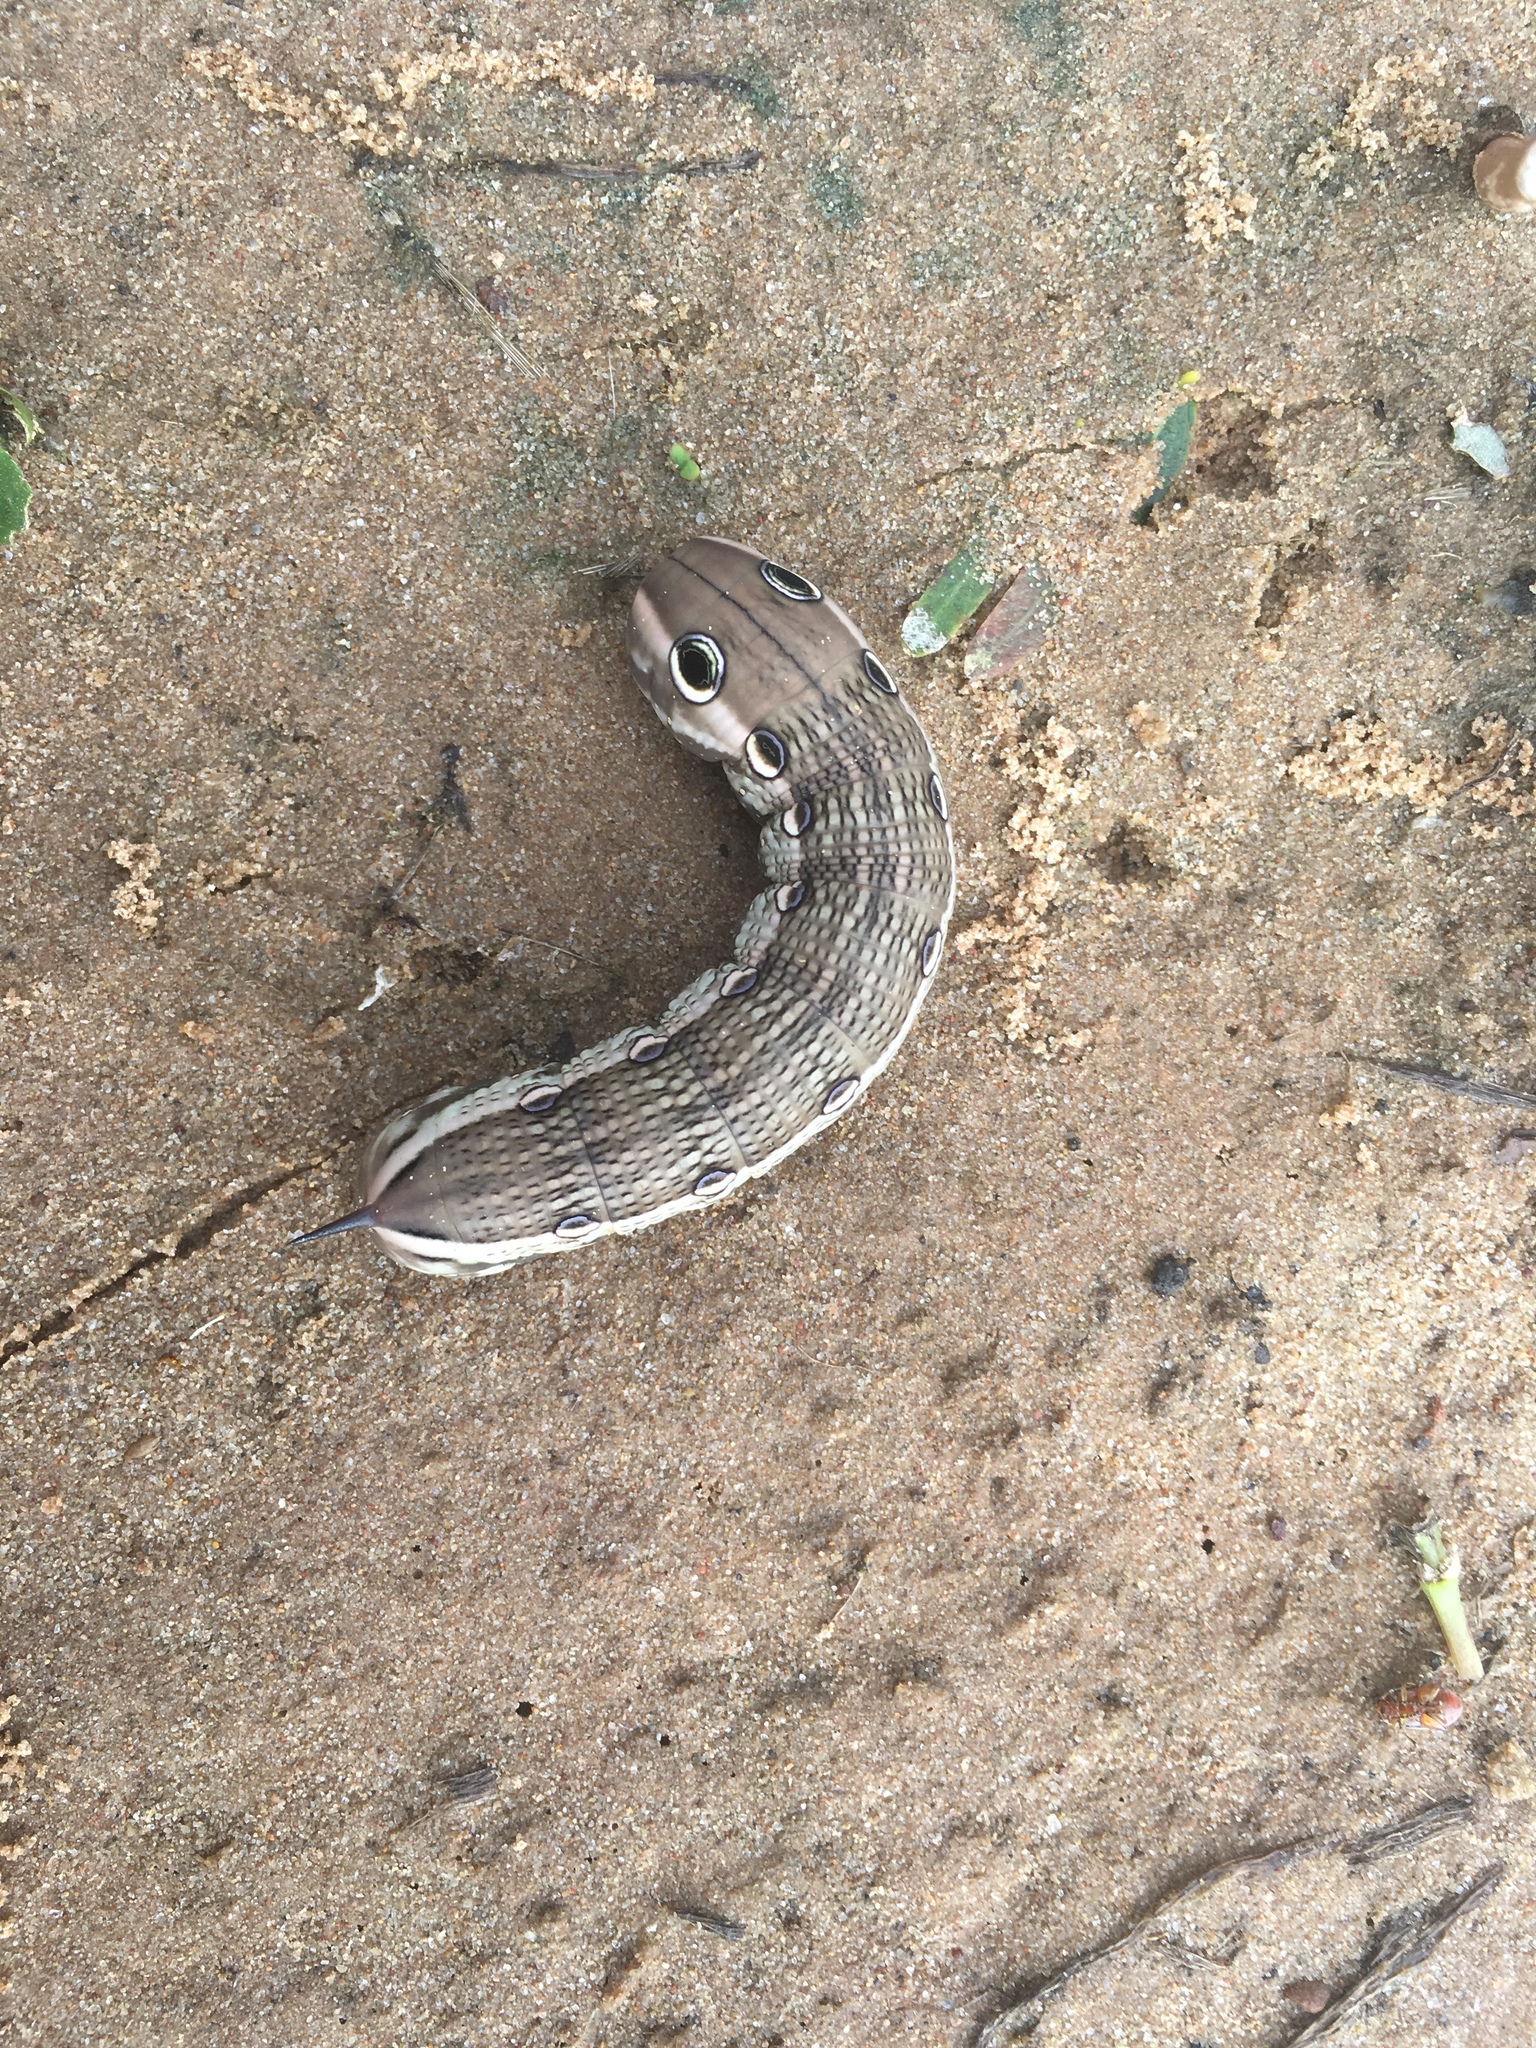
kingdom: Animalia
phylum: Arthropoda
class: Insecta
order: Lepidoptera
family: Sphingidae
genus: Xylophanes
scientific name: Xylophanes tersa
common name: Tersa sphinx
